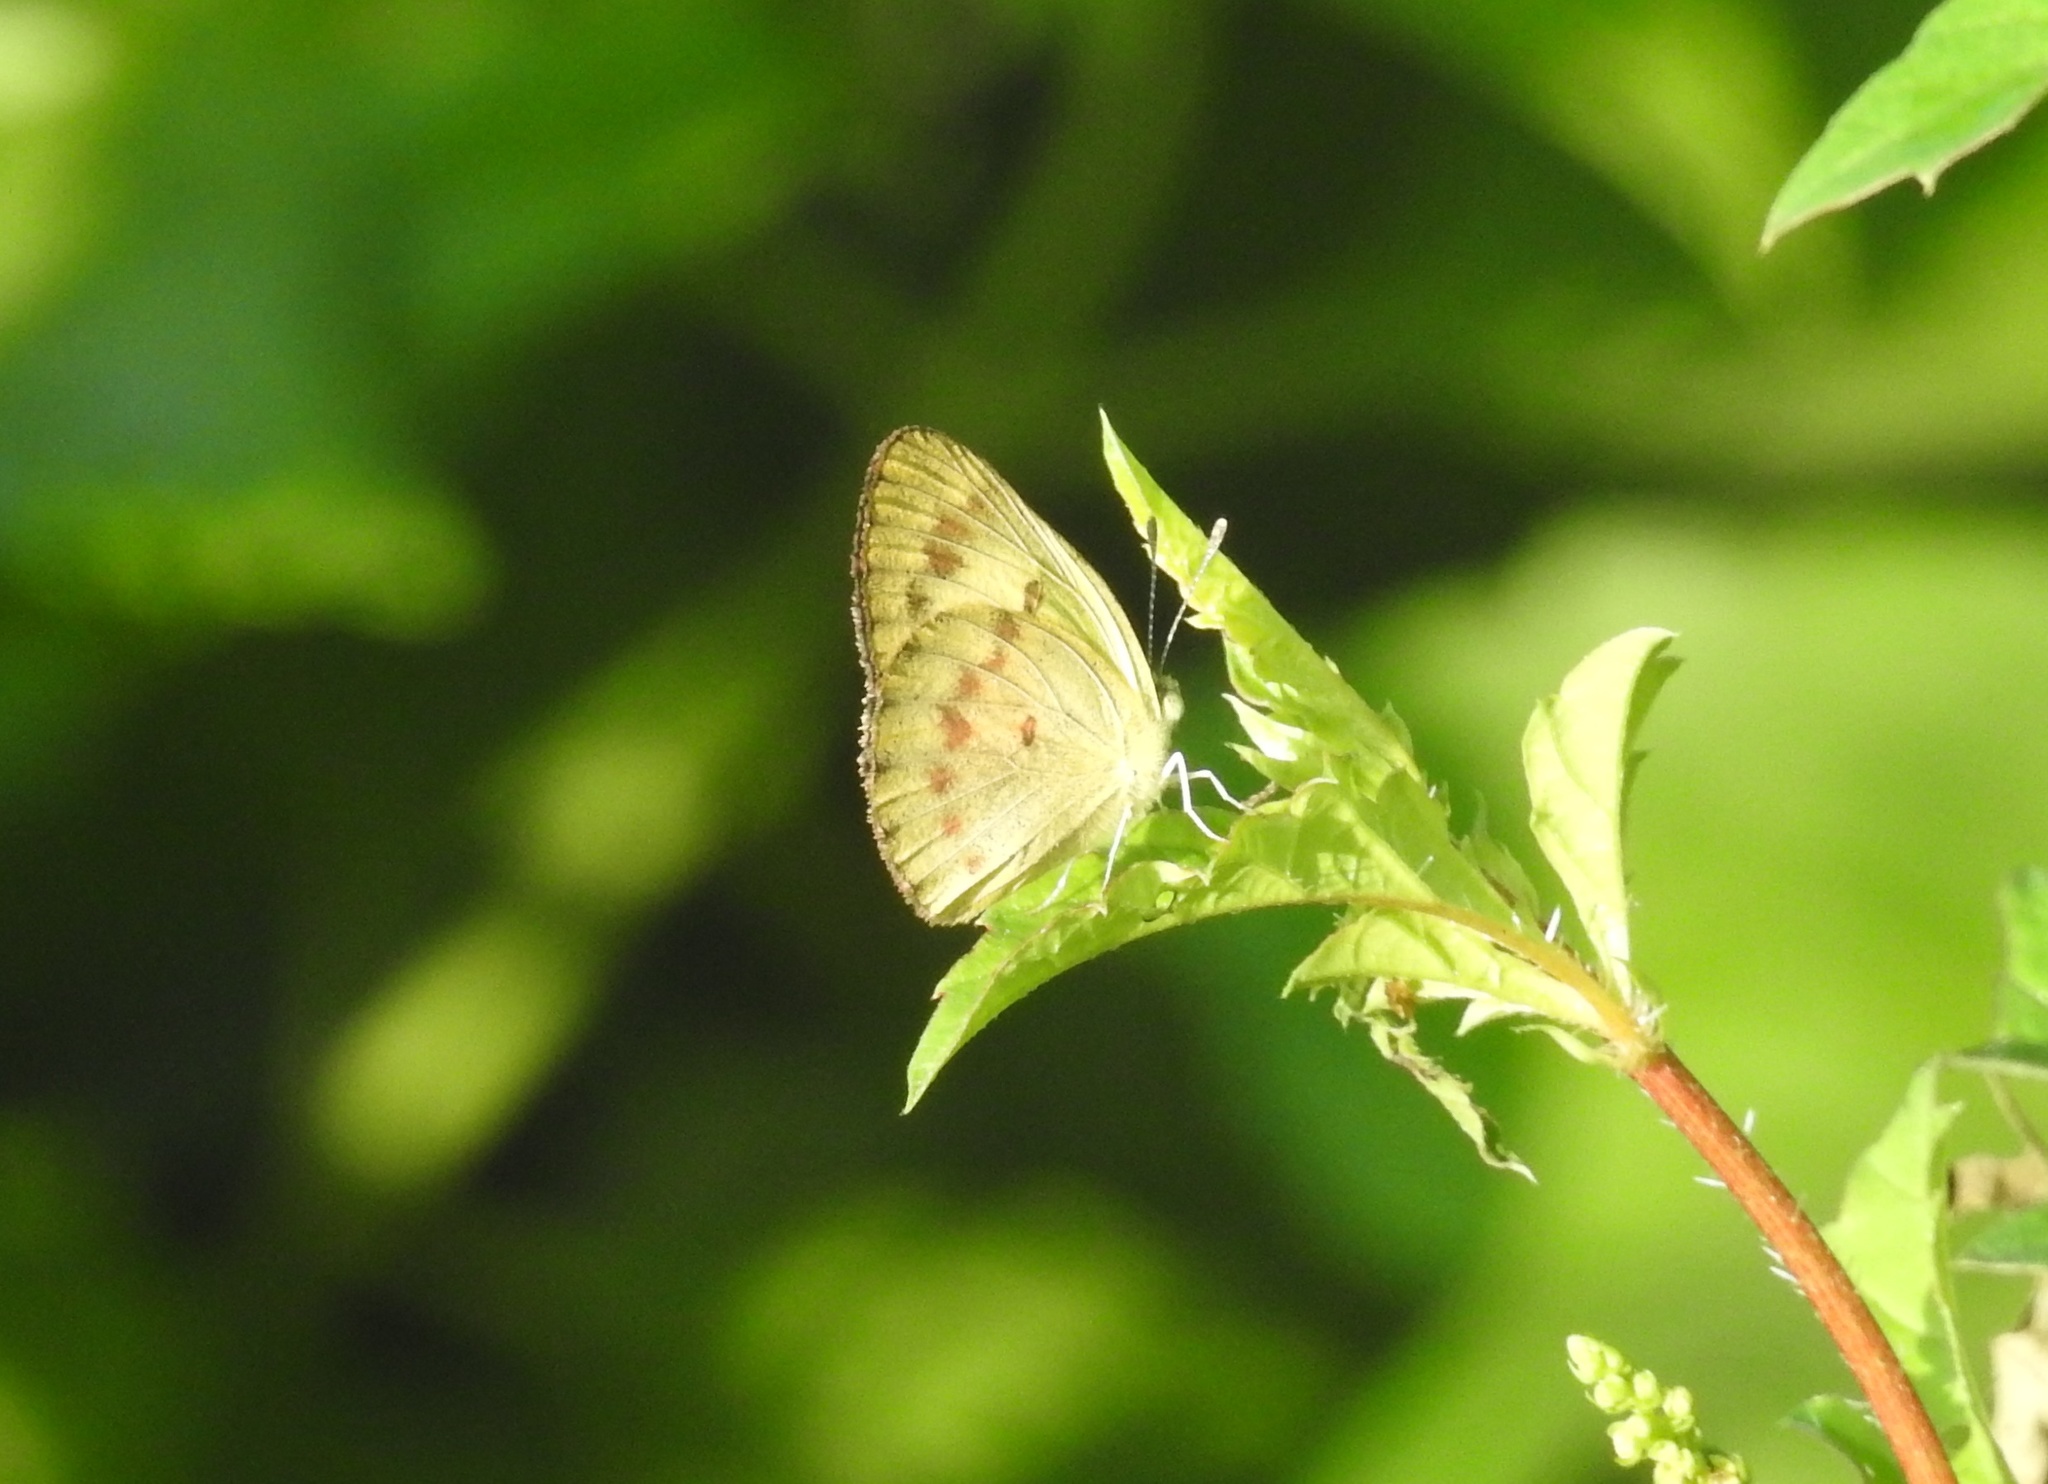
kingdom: Animalia
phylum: Arthropoda
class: Insecta
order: Lepidoptera
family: Pieridae
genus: Colotis
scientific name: Colotis amata
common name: Small salmon arab
